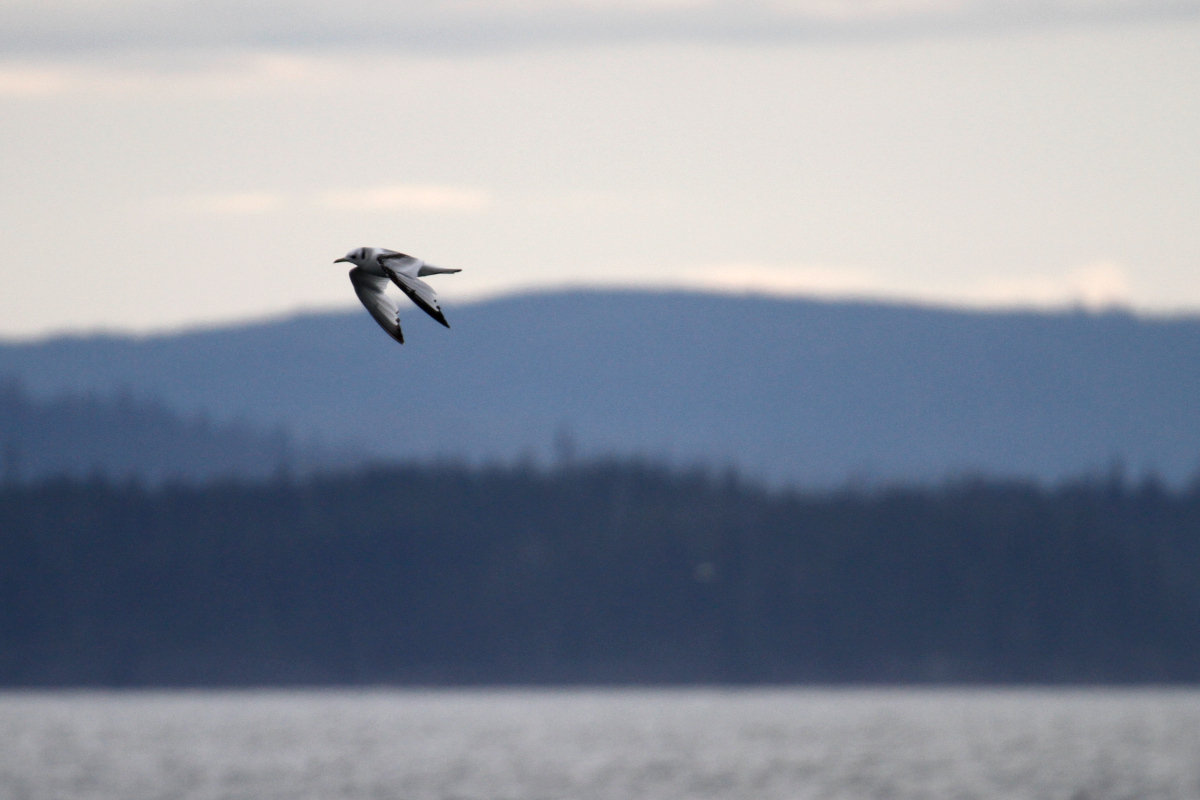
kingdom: Animalia
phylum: Chordata
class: Aves
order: Charadriiformes
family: Laridae
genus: Rissa
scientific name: Rissa tridactyla
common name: Black-legged kittiwake
